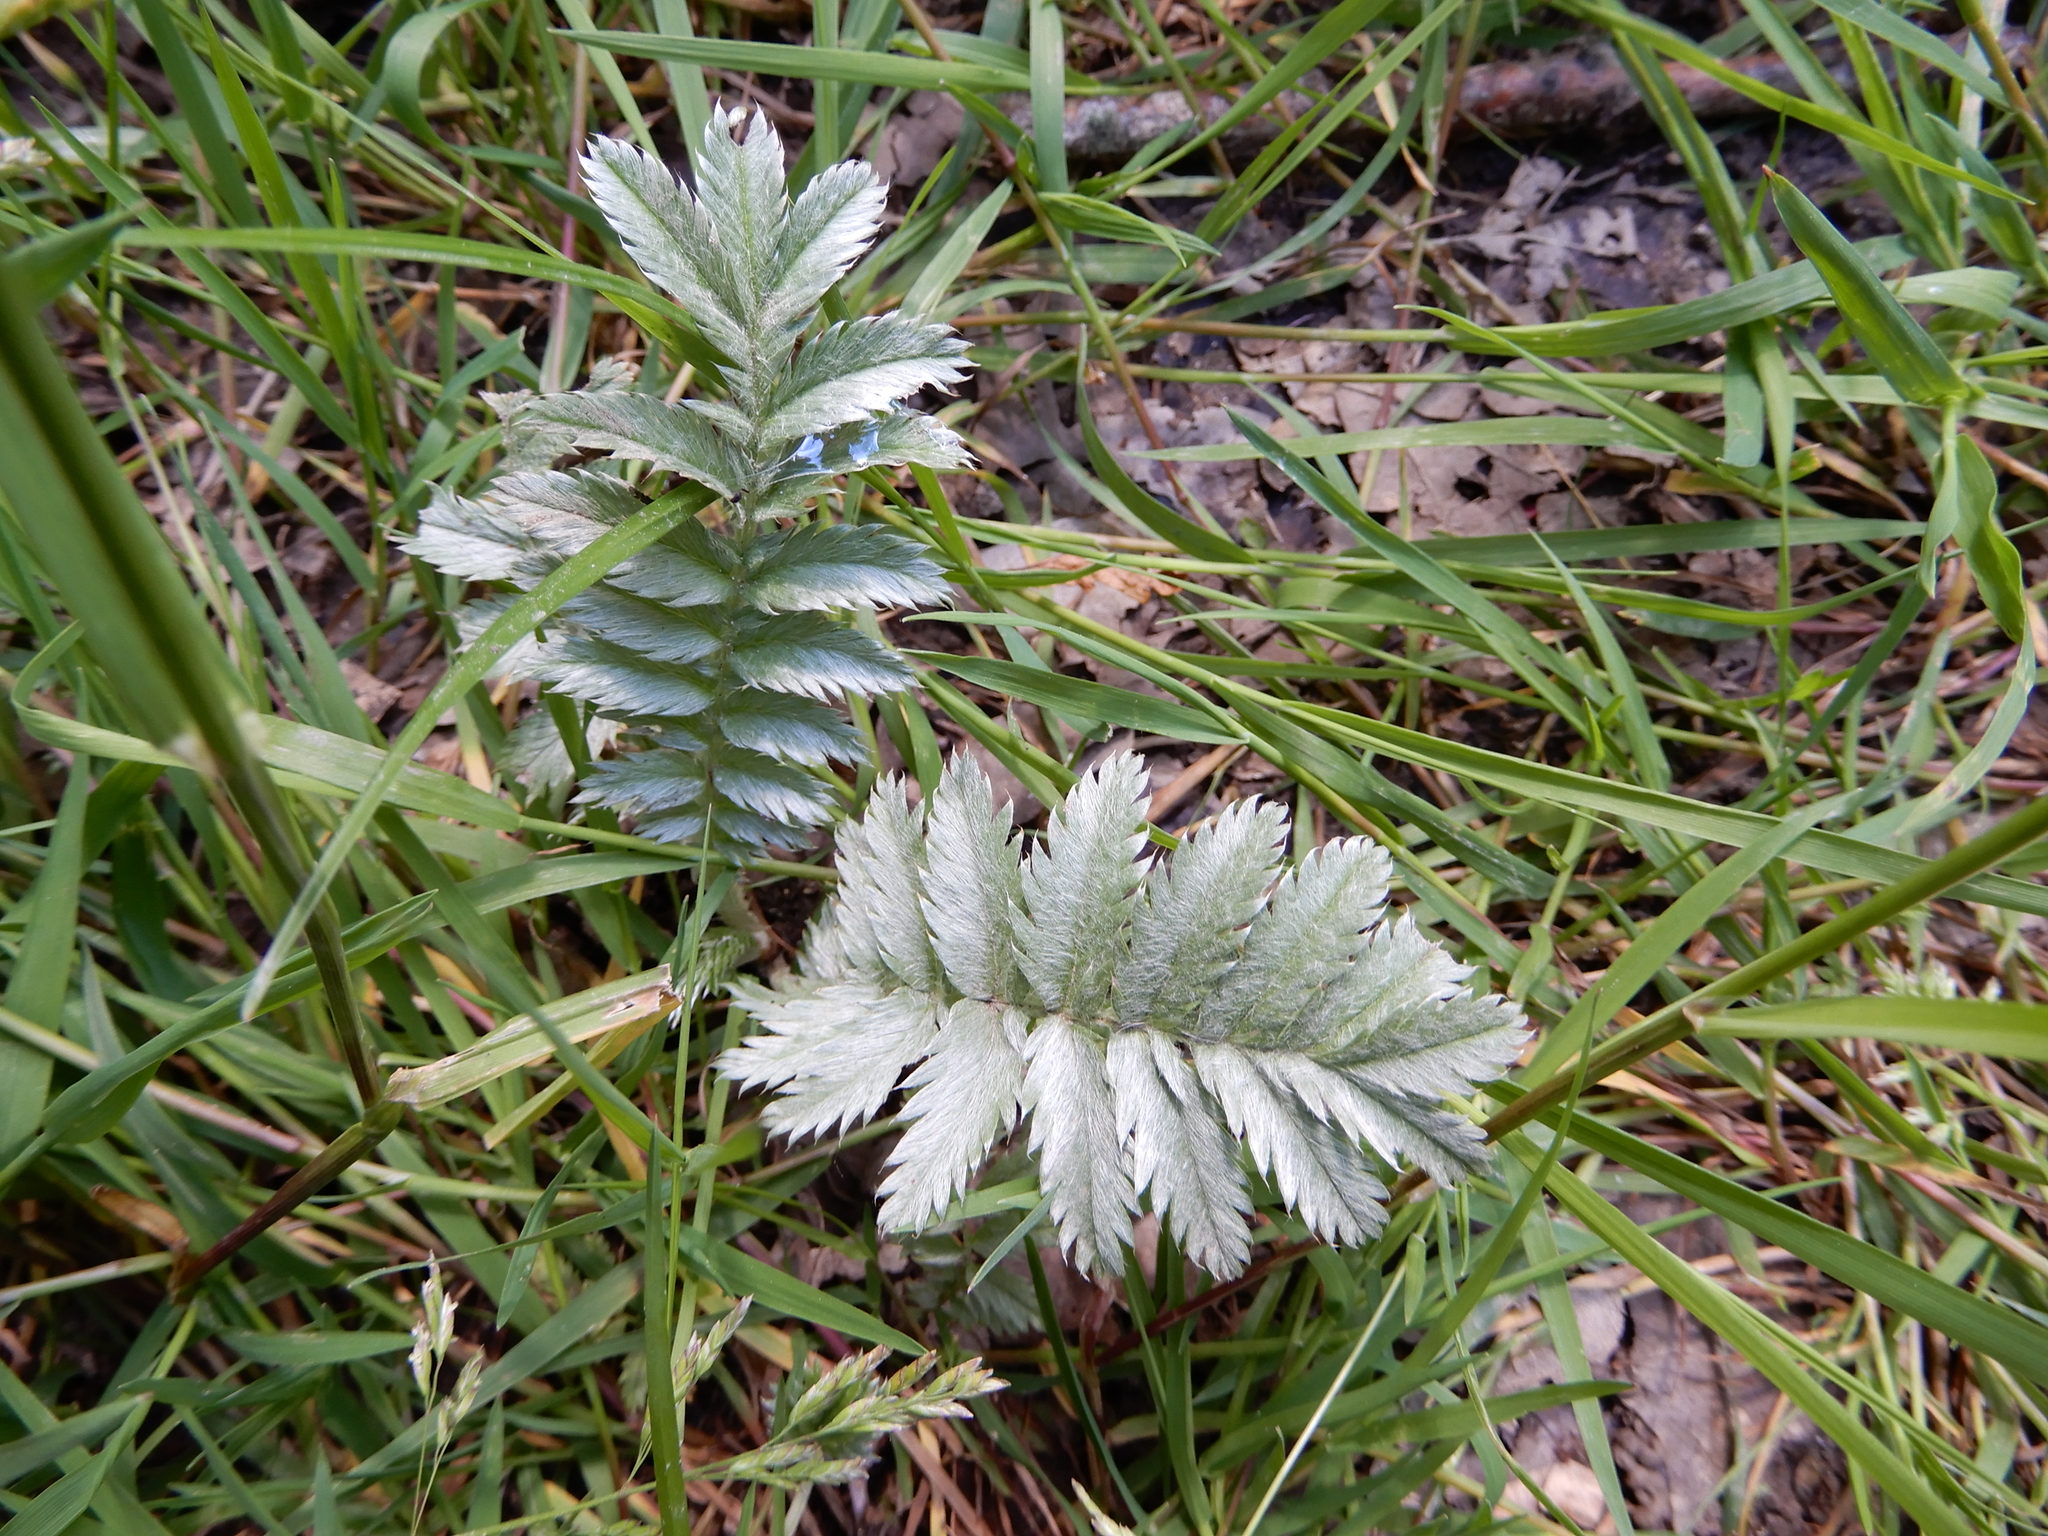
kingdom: Plantae
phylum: Tracheophyta
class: Magnoliopsida
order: Rosales
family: Rosaceae
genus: Argentina
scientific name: Argentina anserina
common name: Common silverweed
